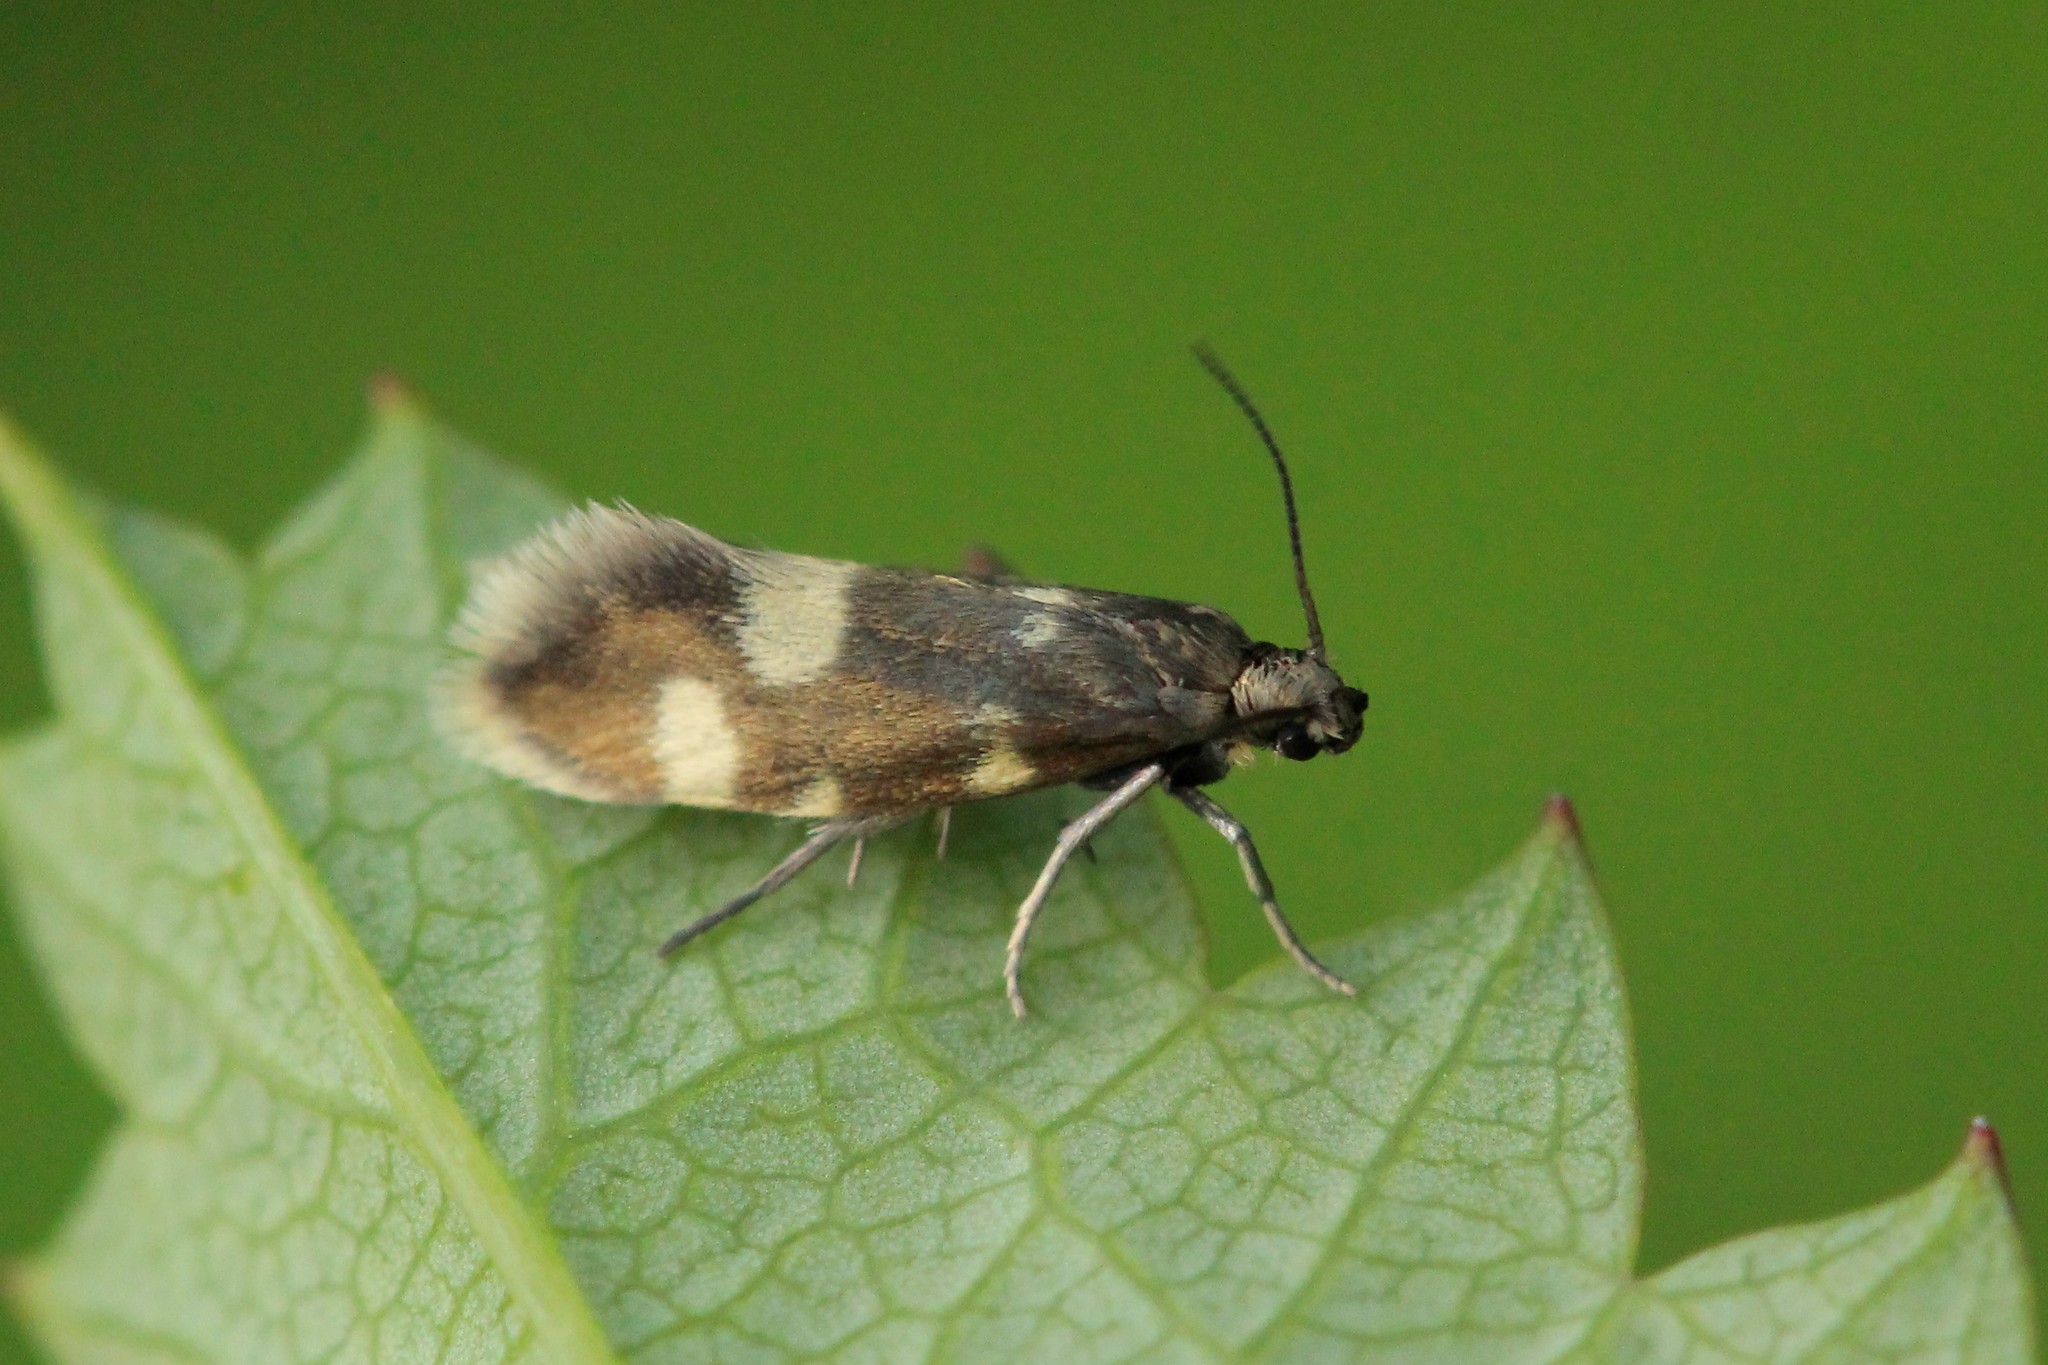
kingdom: Animalia
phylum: Arthropoda
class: Insecta
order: Lepidoptera
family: Incurvariidae
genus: Lampronia
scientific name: Lampronia
